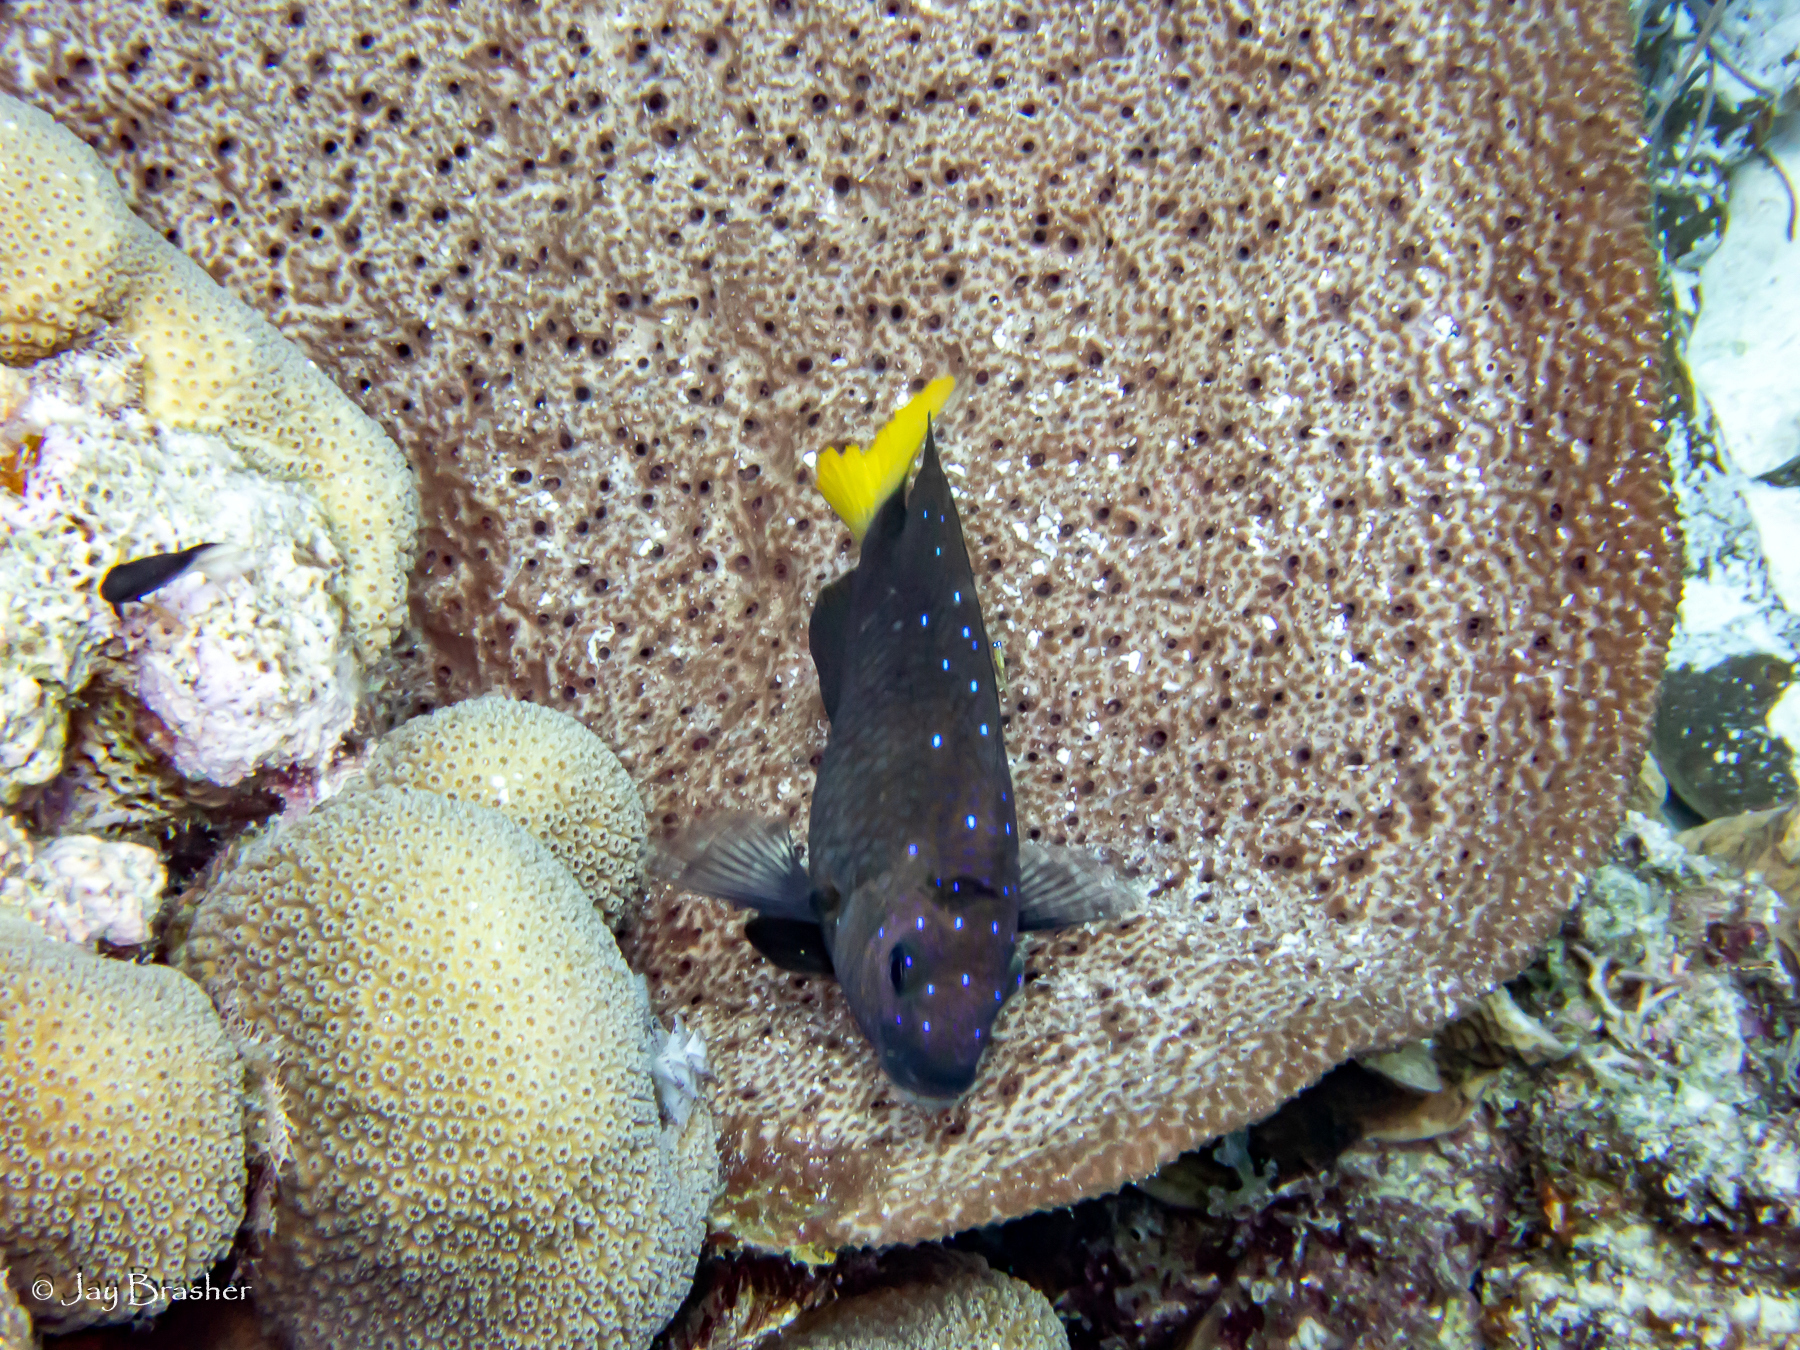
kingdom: Animalia
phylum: Chordata
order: Perciformes
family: Pomacentridae
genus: Microspathodon
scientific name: Microspathodon chrysurus
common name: Yellowtail damselfish
